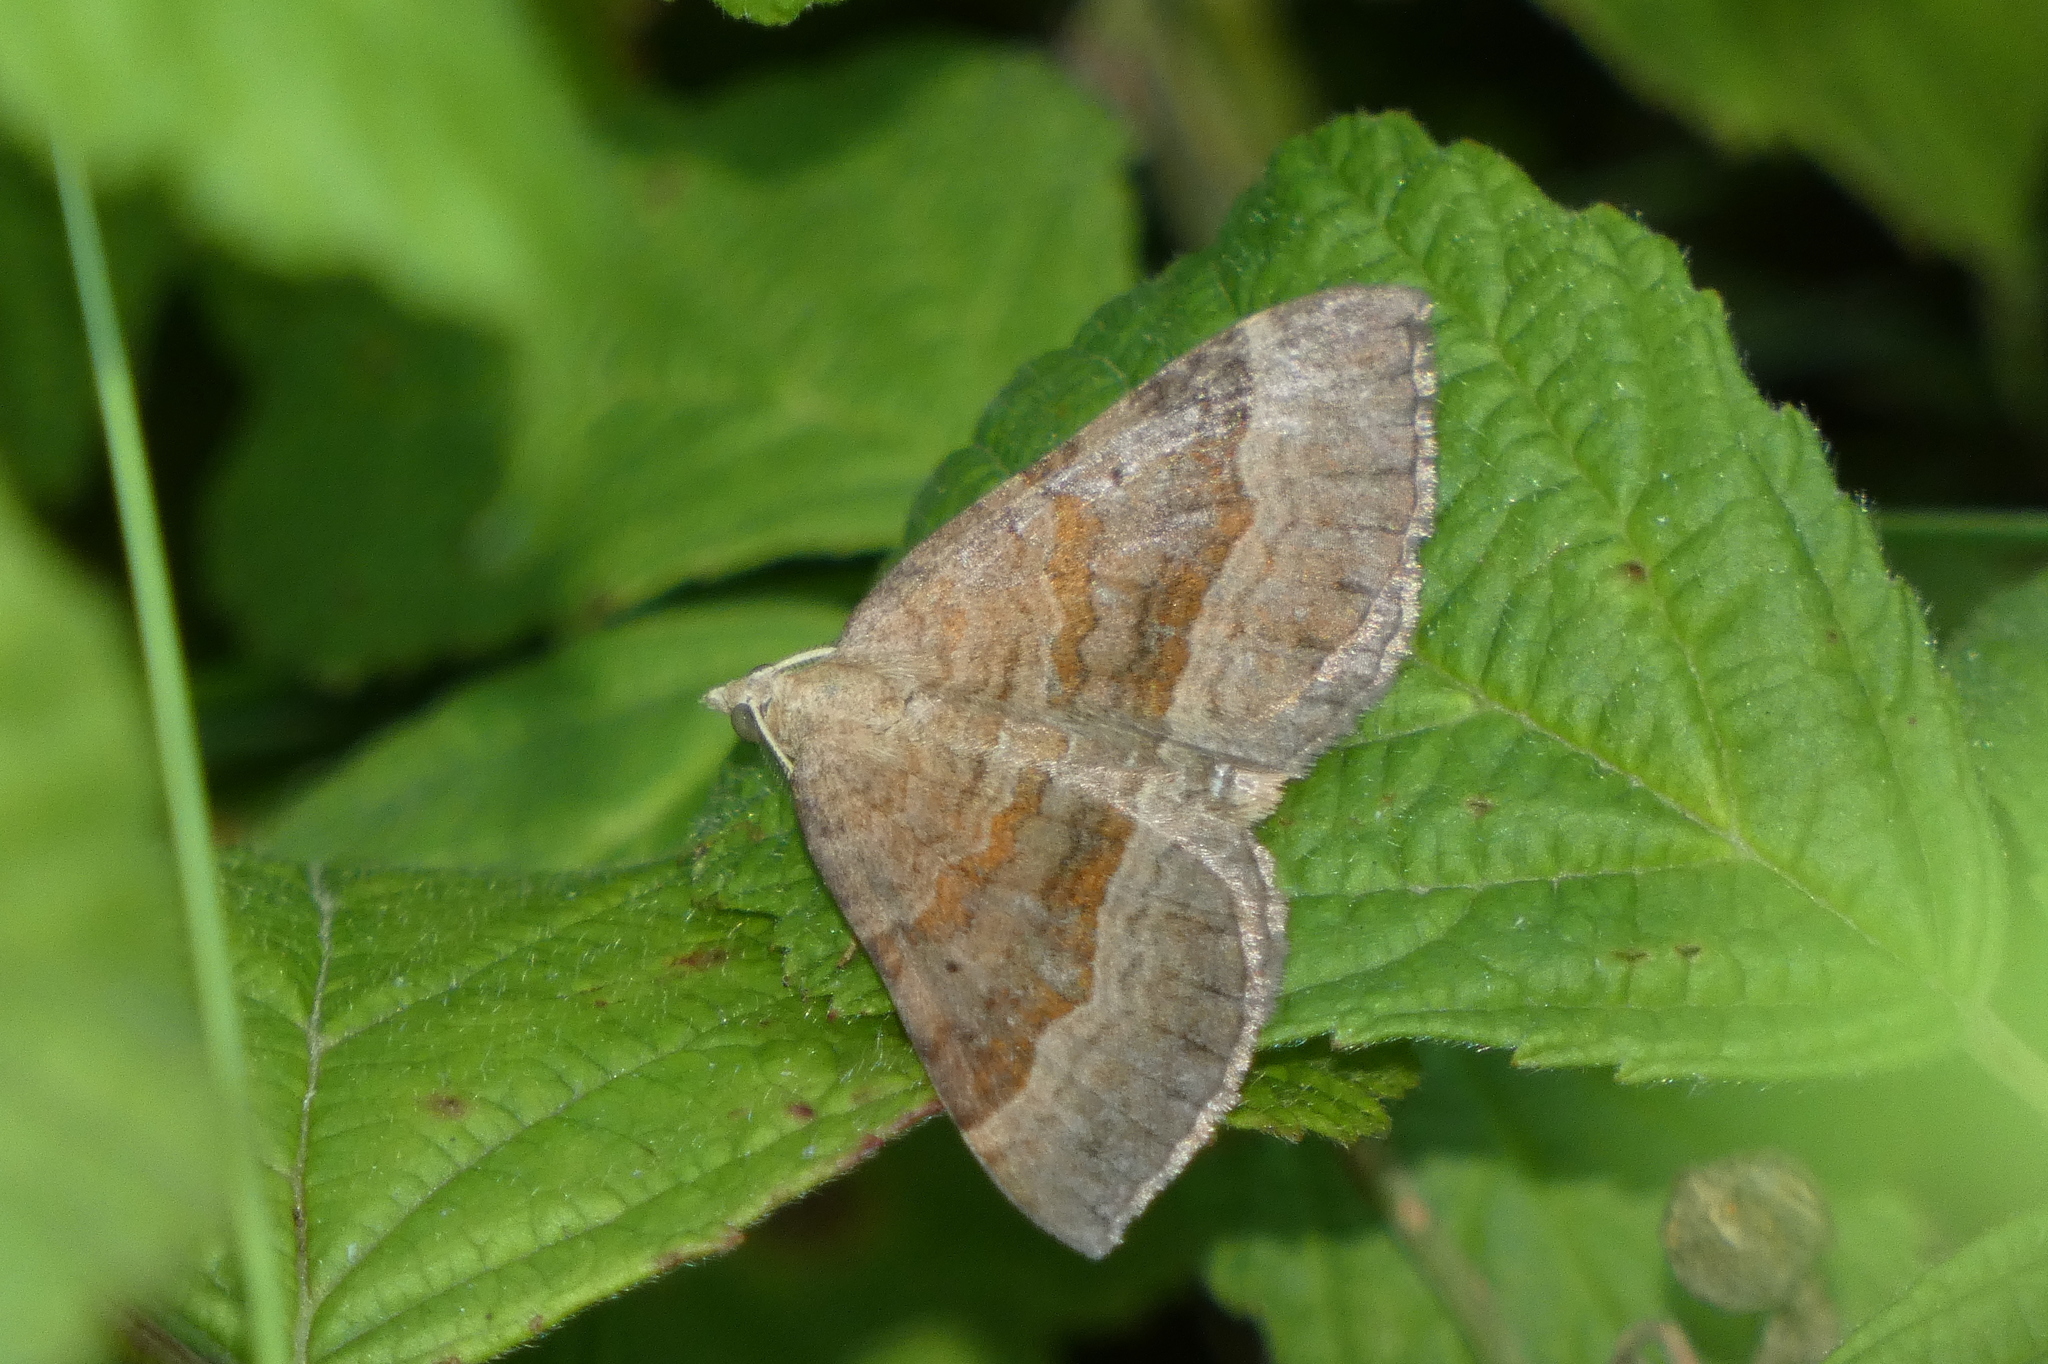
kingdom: Animalia
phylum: Arthropoda
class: Insecta
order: Lepidoptera
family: Geometridae
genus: Scotopteryx
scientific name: Scotopteryx chenopodiata
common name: Shaded broad-bar
